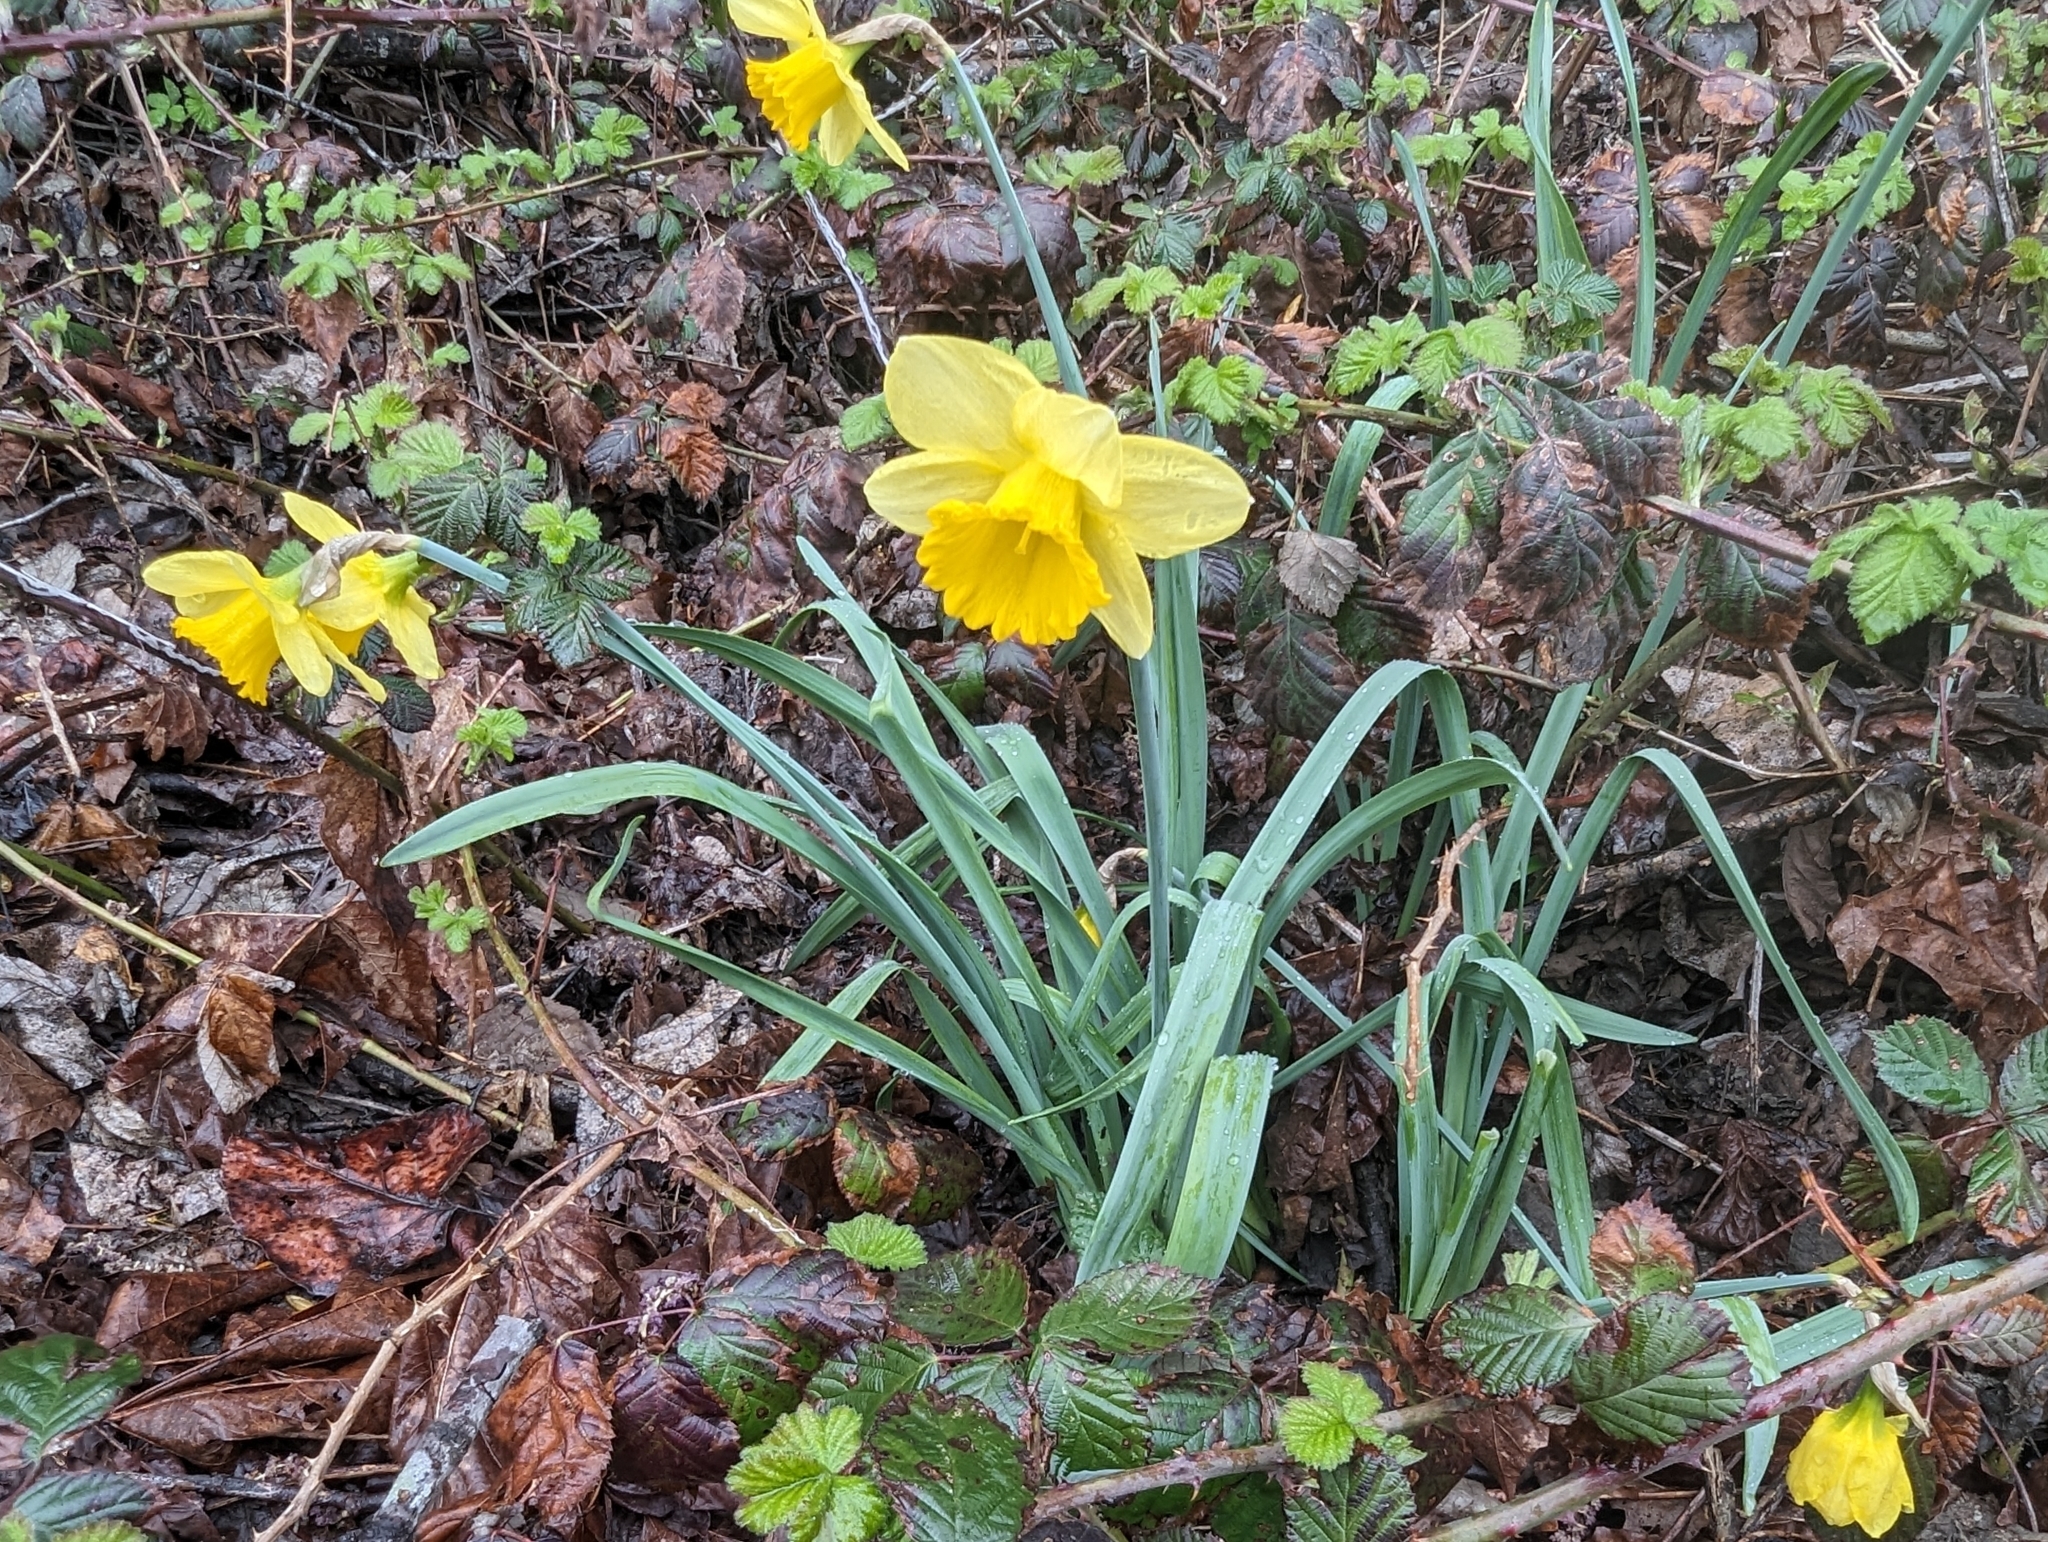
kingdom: Plantae
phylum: Tracheophyta
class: Liliopsida
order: Asparagales
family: Amaryllidaceae
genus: Narcissus
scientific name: Narcissus pseudonarcissus
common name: Daffodil
